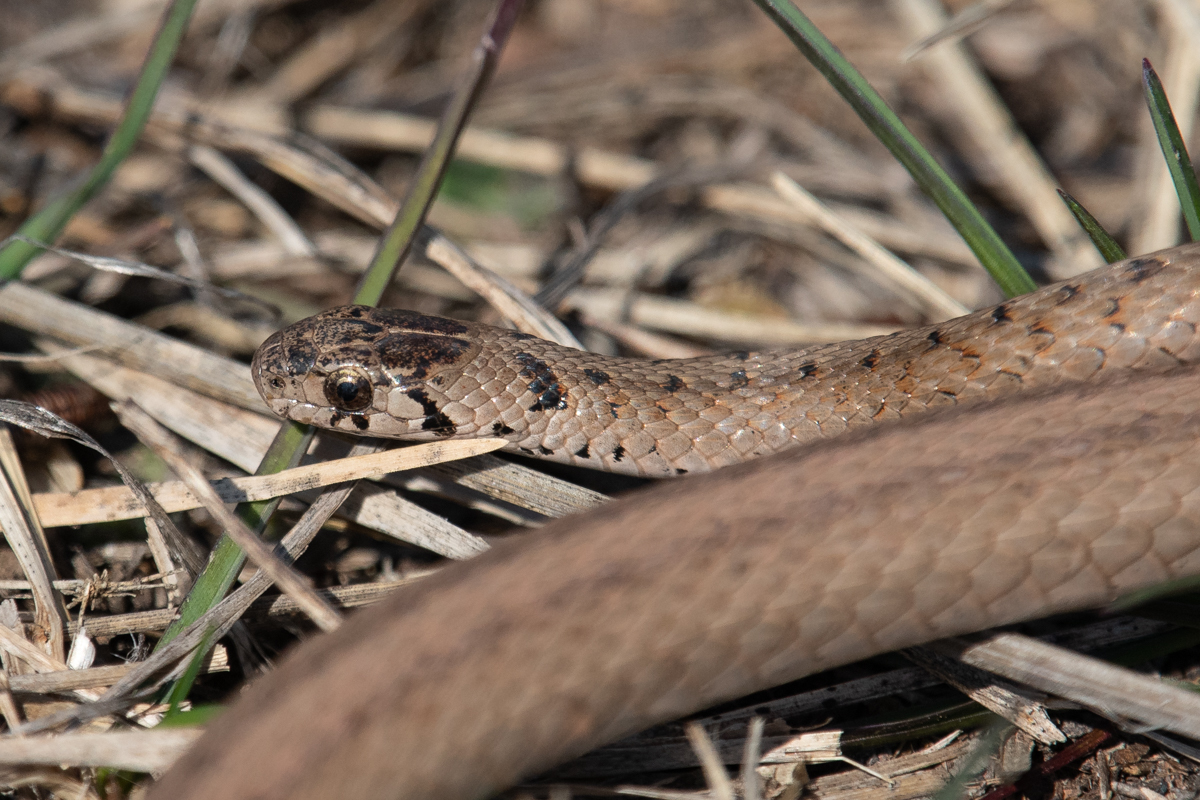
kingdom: Animalia
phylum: Chordata
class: Squamata
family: Colubridae
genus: Storeria
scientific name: Storeria dekayi
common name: (dekay’s) brown snake
